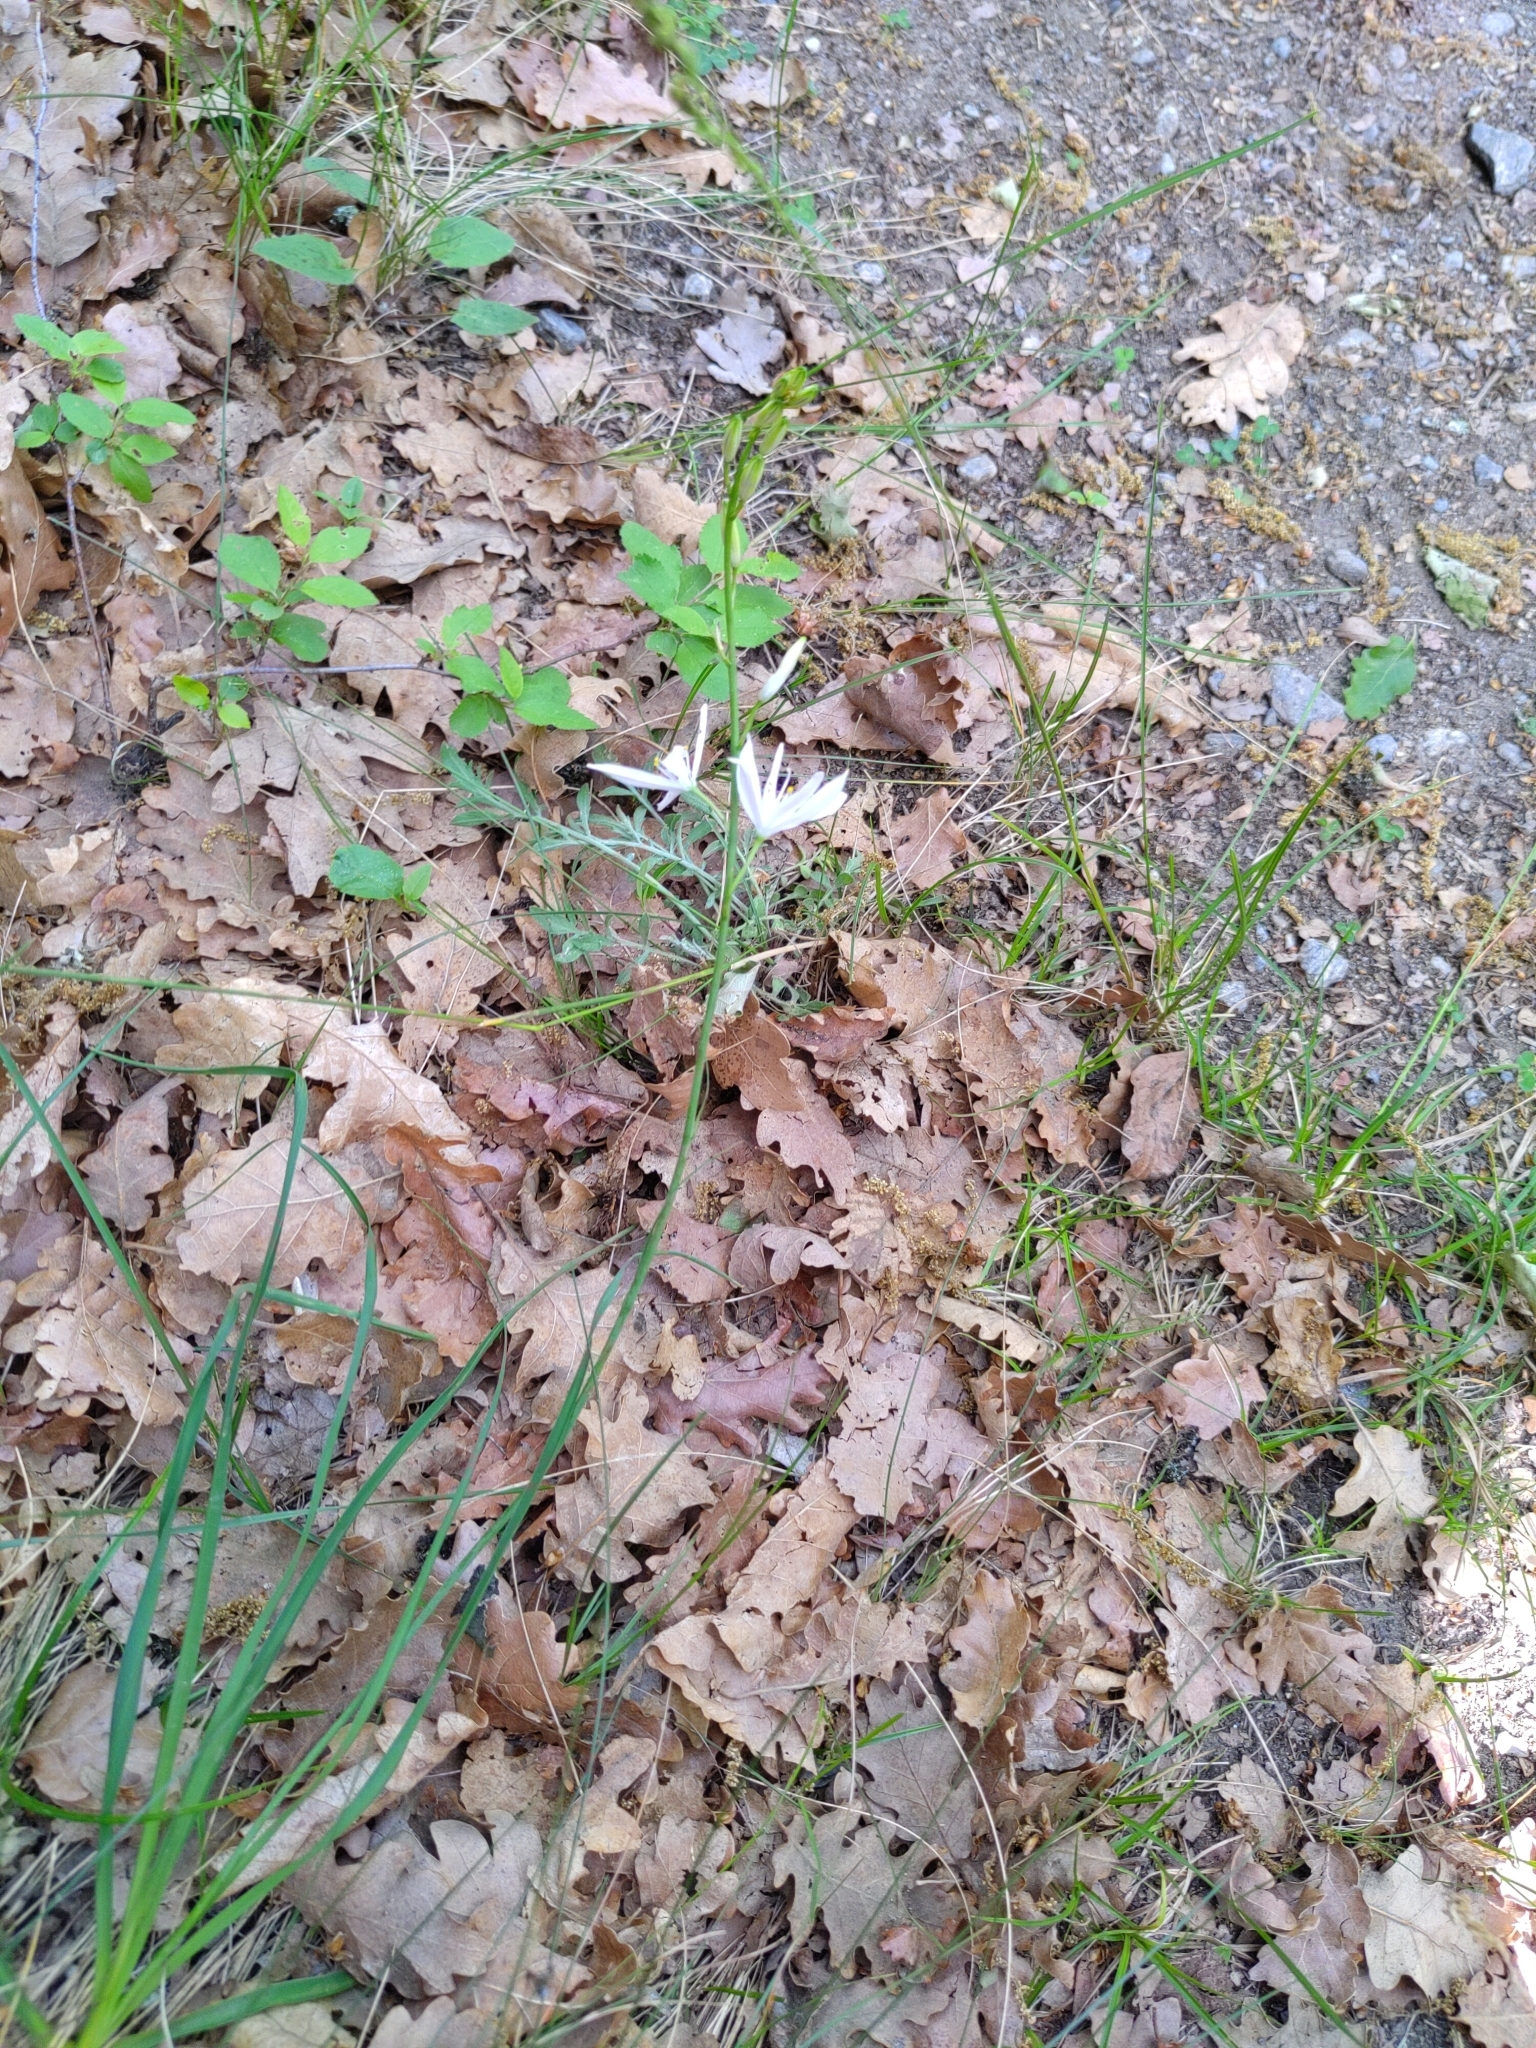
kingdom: Plantae
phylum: Tracheophyta
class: Liliopsida
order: Asparagales
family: Asparagaceae
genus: Anthericum
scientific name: Anthericum liliago
